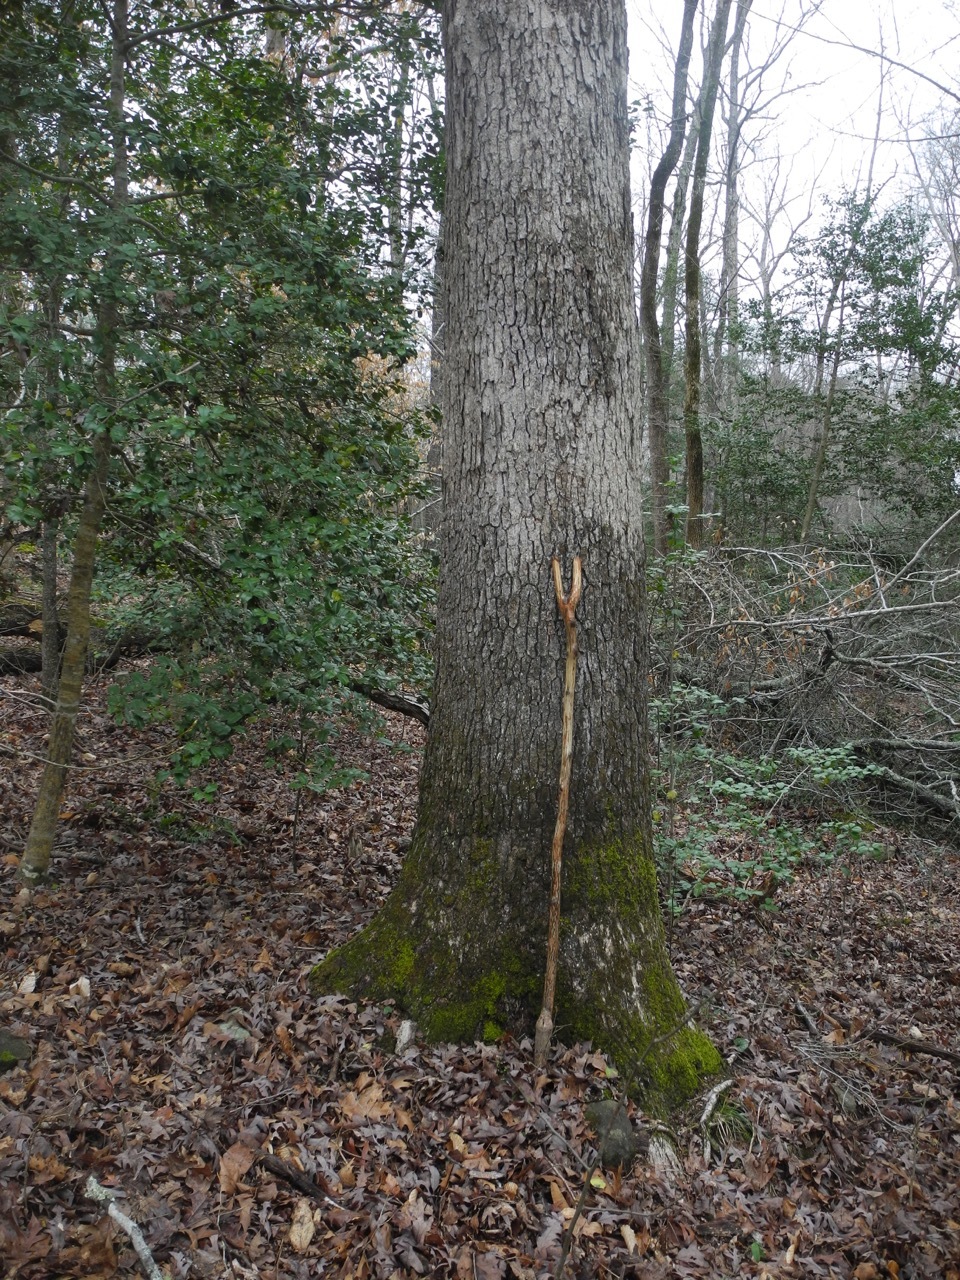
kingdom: Plantae
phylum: Tracheophyta
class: Magnoliopsida
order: Fagales
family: Fagaceae
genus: Quercus
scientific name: Quercus alba
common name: White oak
